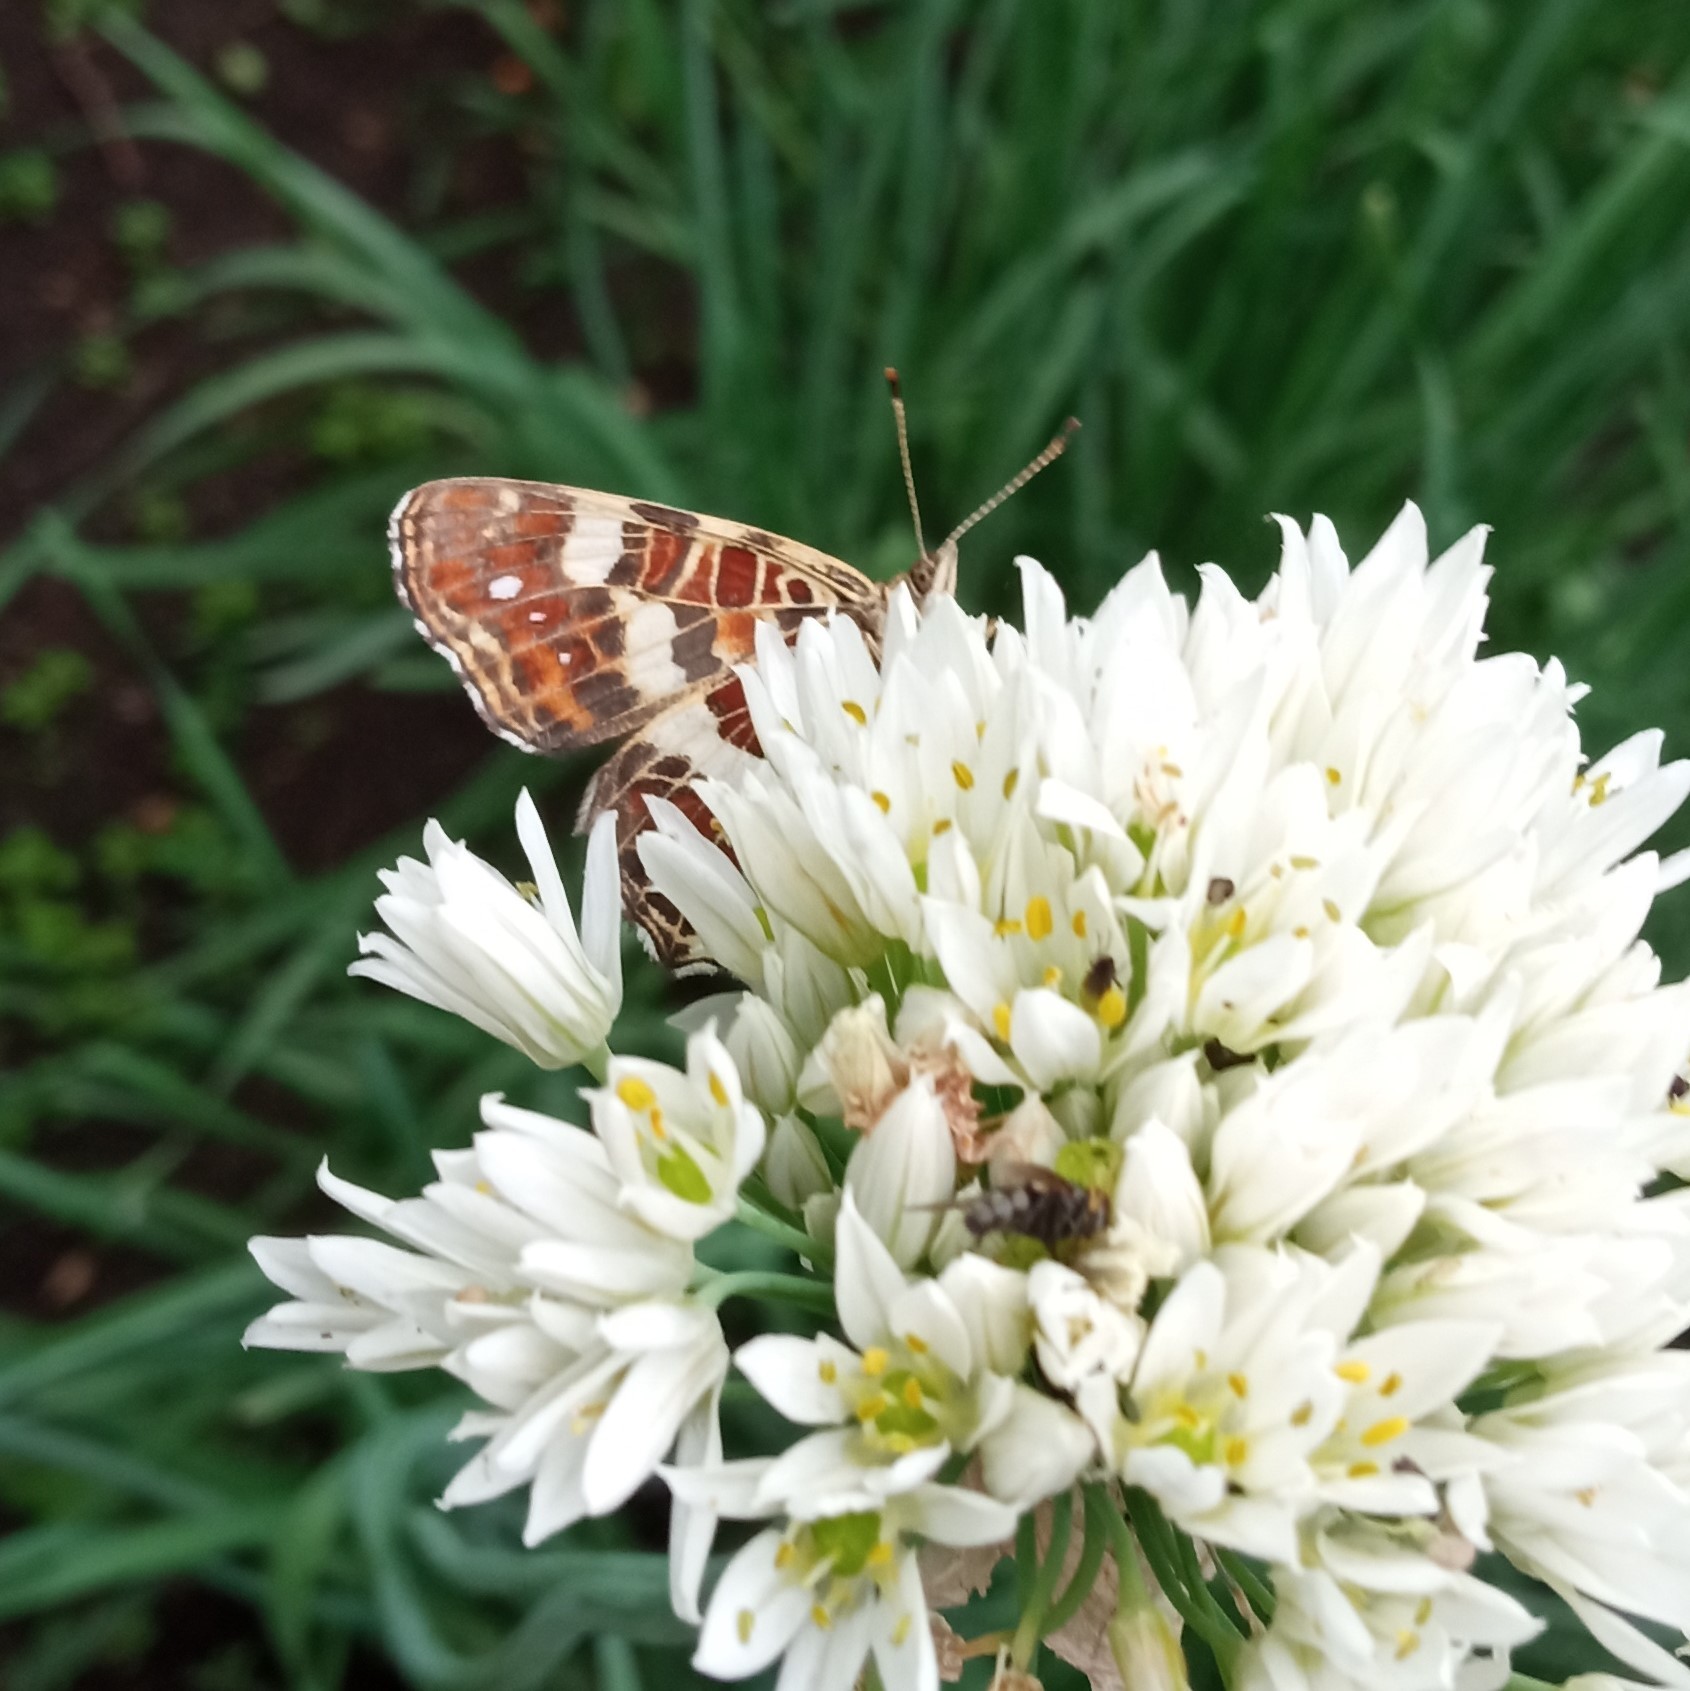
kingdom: Animalia
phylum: Arthropoda
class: Insecta
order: Lepidoptera
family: Nymphalidae
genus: Araschnia
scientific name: Araschnia levana
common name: Map butterfly
